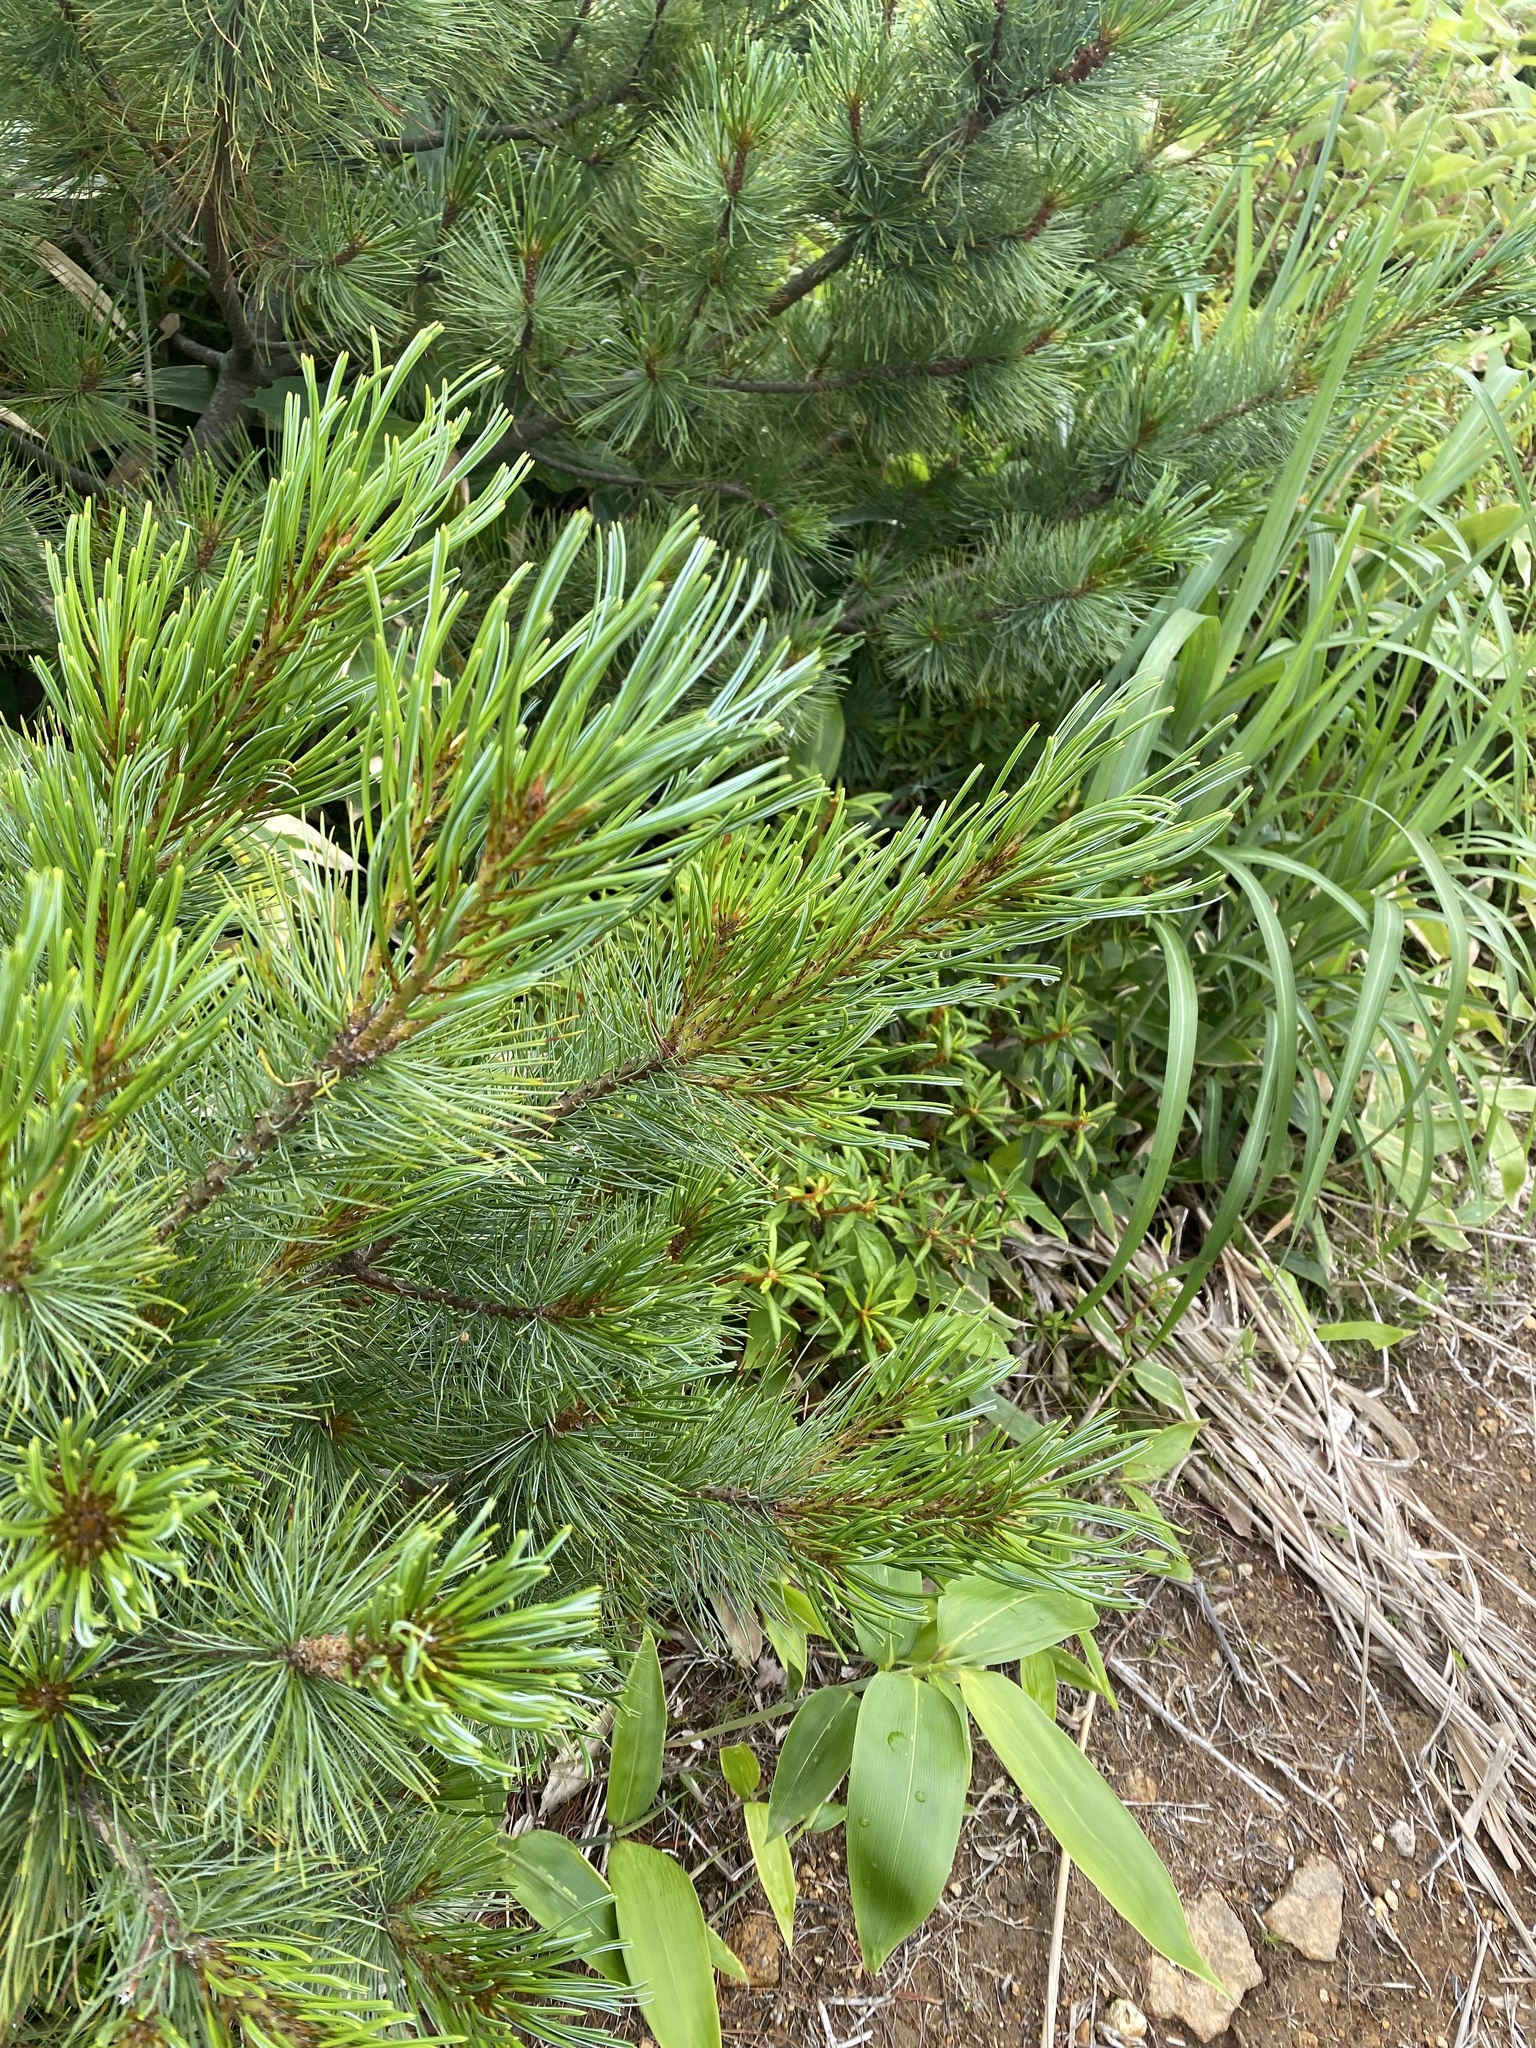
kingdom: Plantae
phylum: Tracheophyta
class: Pinopsida
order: Pinales
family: Pinaceae
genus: Pinus
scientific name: Pinus pumila
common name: Dwarf siberian pine
